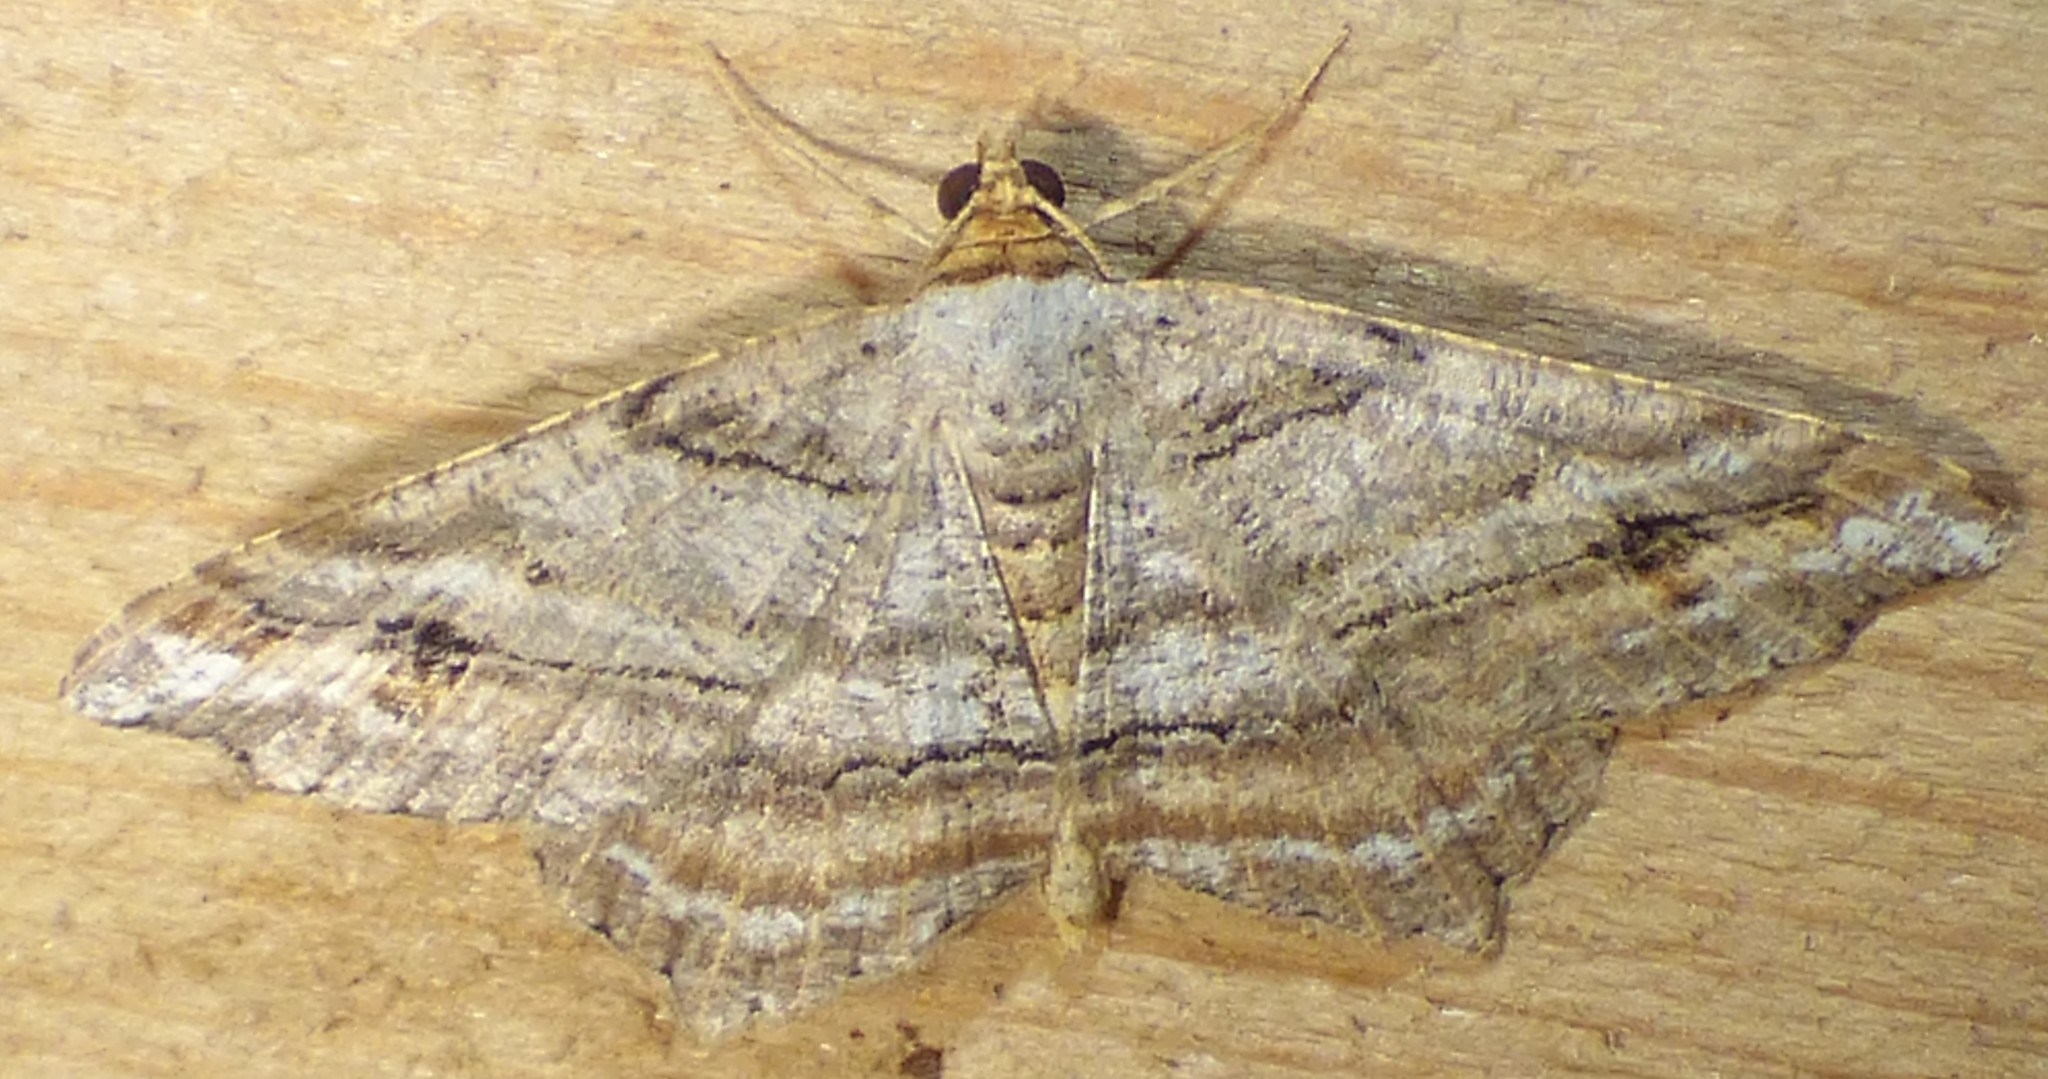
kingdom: Animalia
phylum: Arthropoda
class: Insecta
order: Lepidoptera
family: Geometridae
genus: Macaria
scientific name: Macaria multilineata
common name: Many-lined angle
